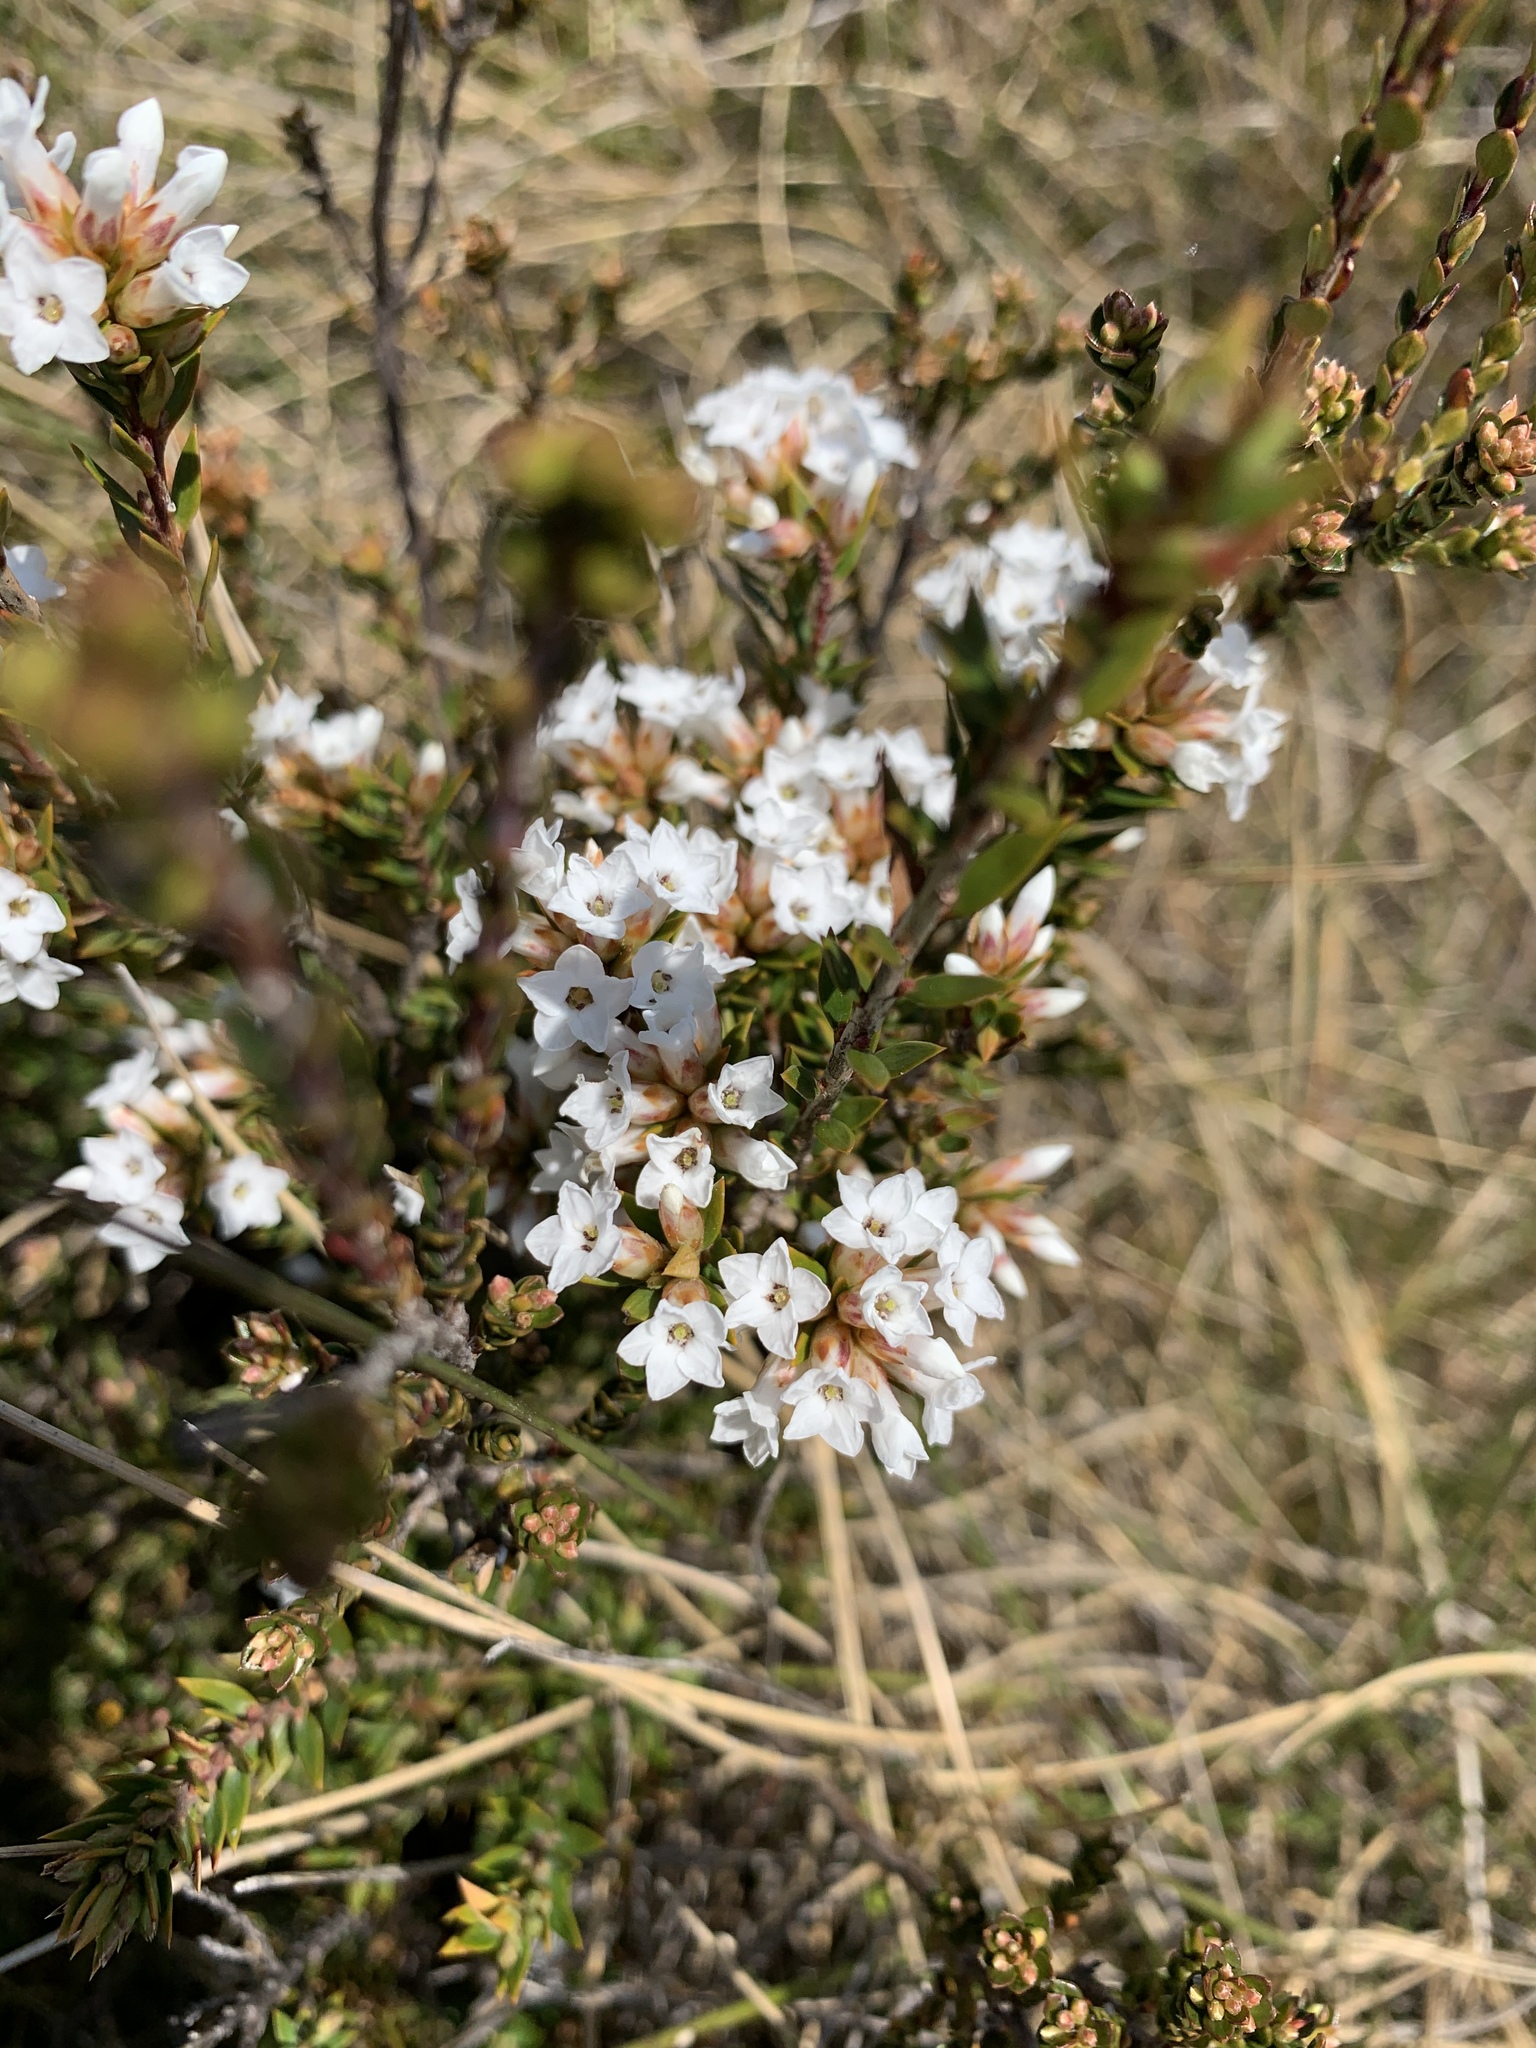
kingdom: Plantae
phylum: Tracheophyta
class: Magnoliopsida
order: Ericales
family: Ericaceae
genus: Epacris
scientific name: Epacris paludosa
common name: Swamp-heath
